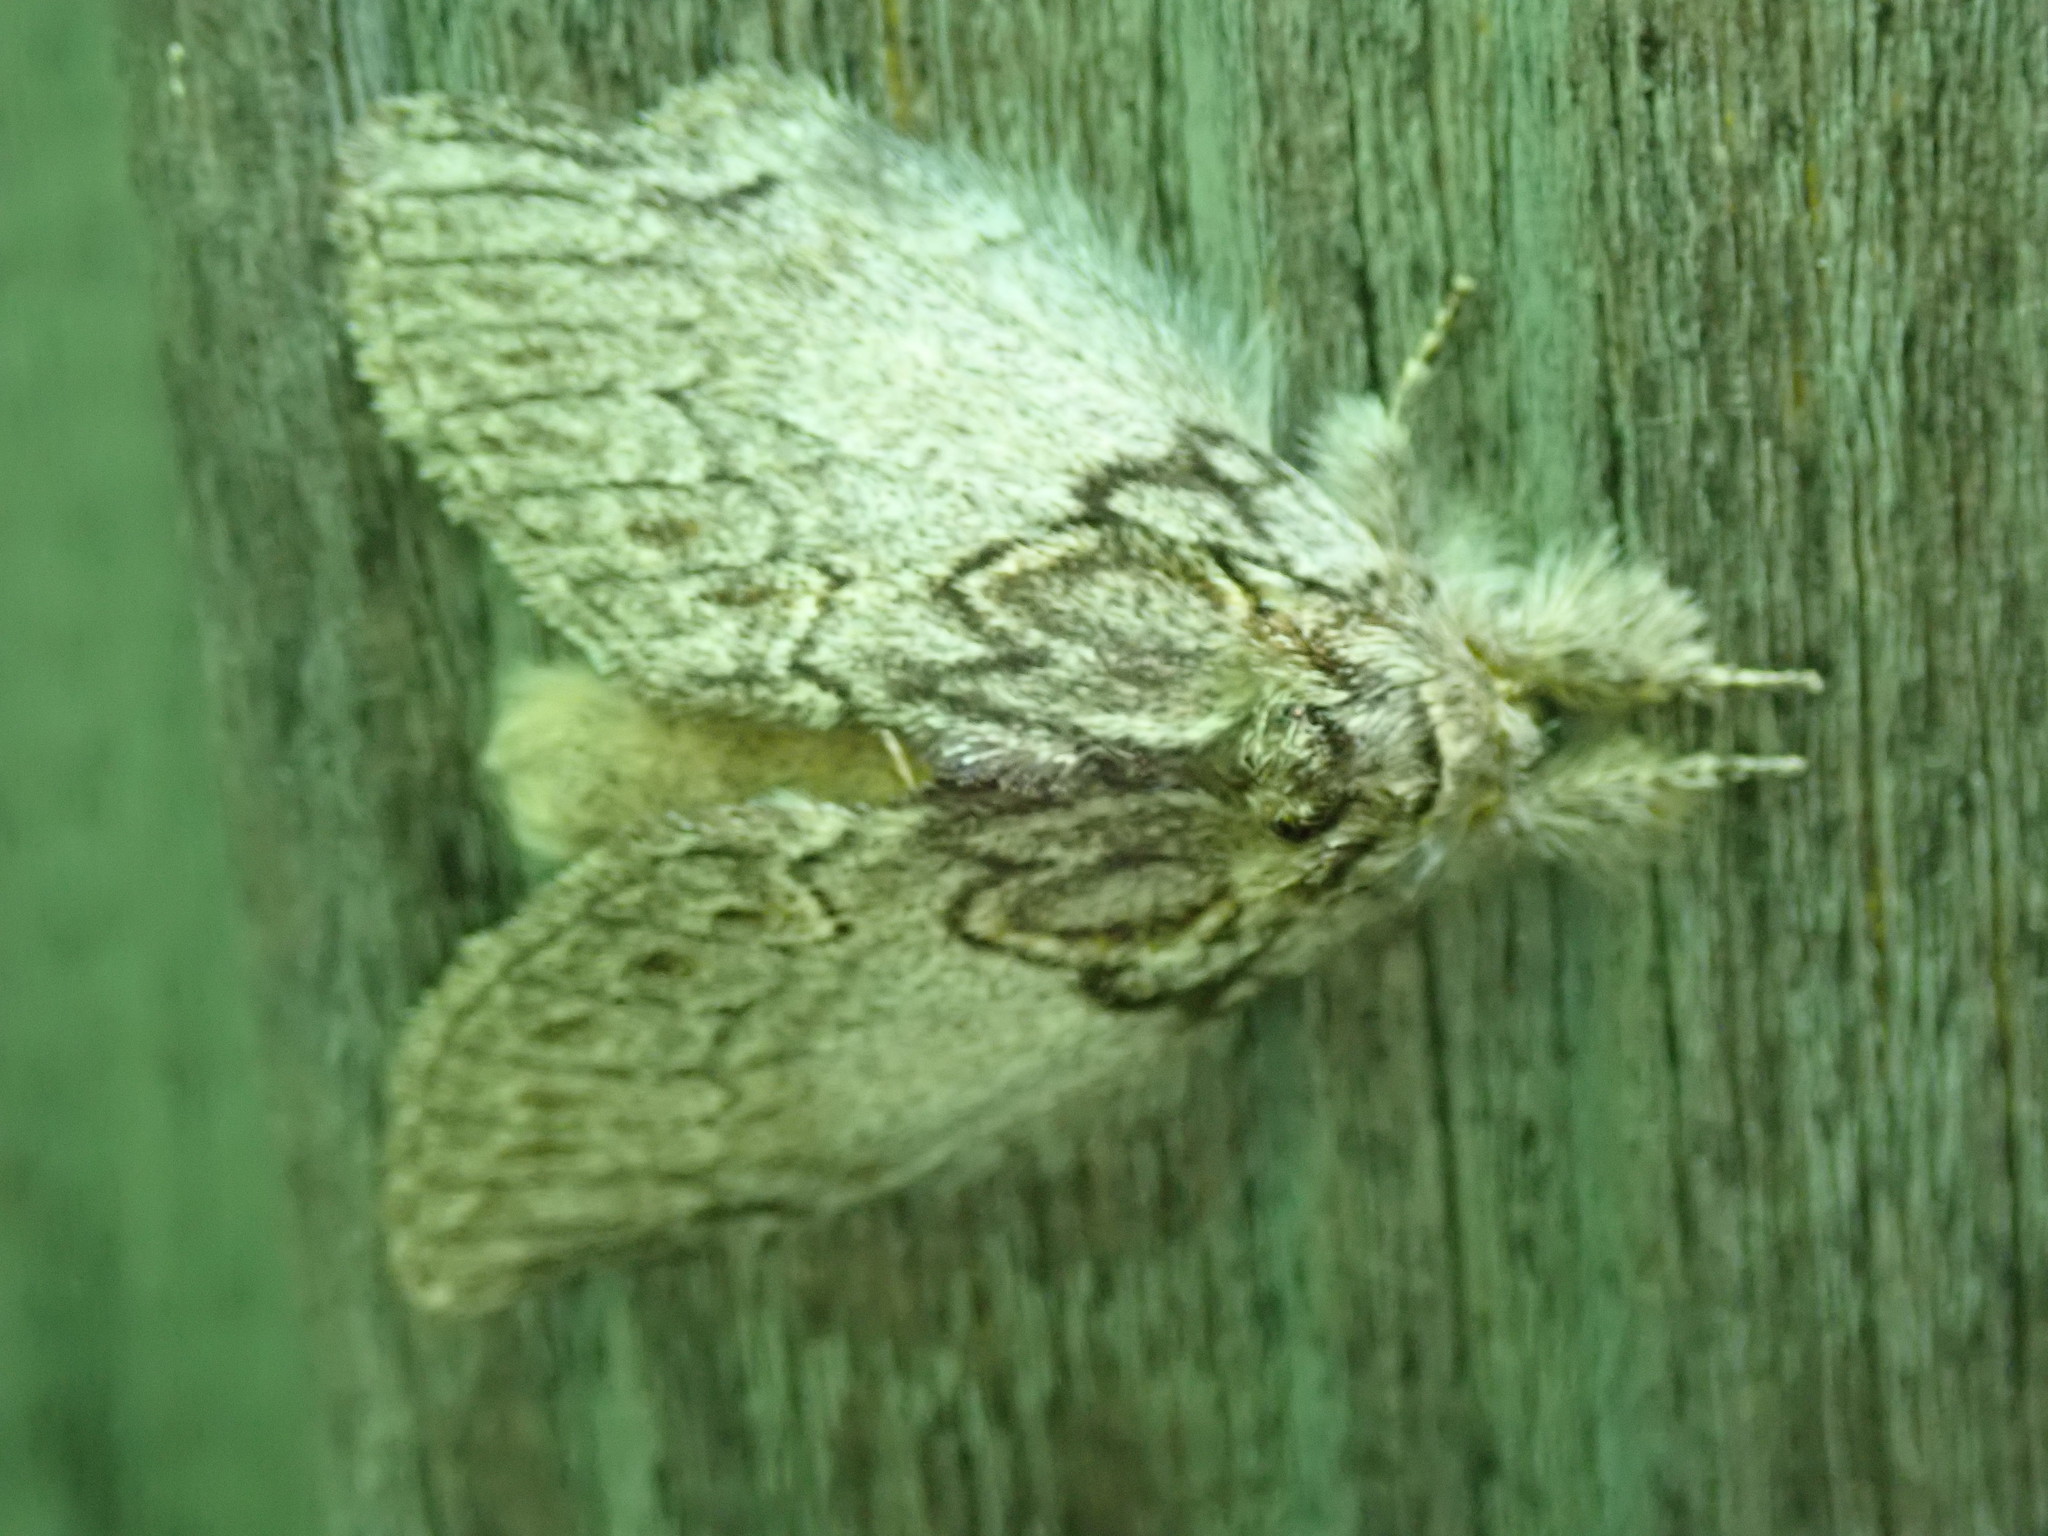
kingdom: Animalia
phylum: Arthropoda
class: Insecta
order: Lepidoptera
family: Notodontidae
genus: Peridea
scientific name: Peridea basitriens
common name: Oval-based prominent
